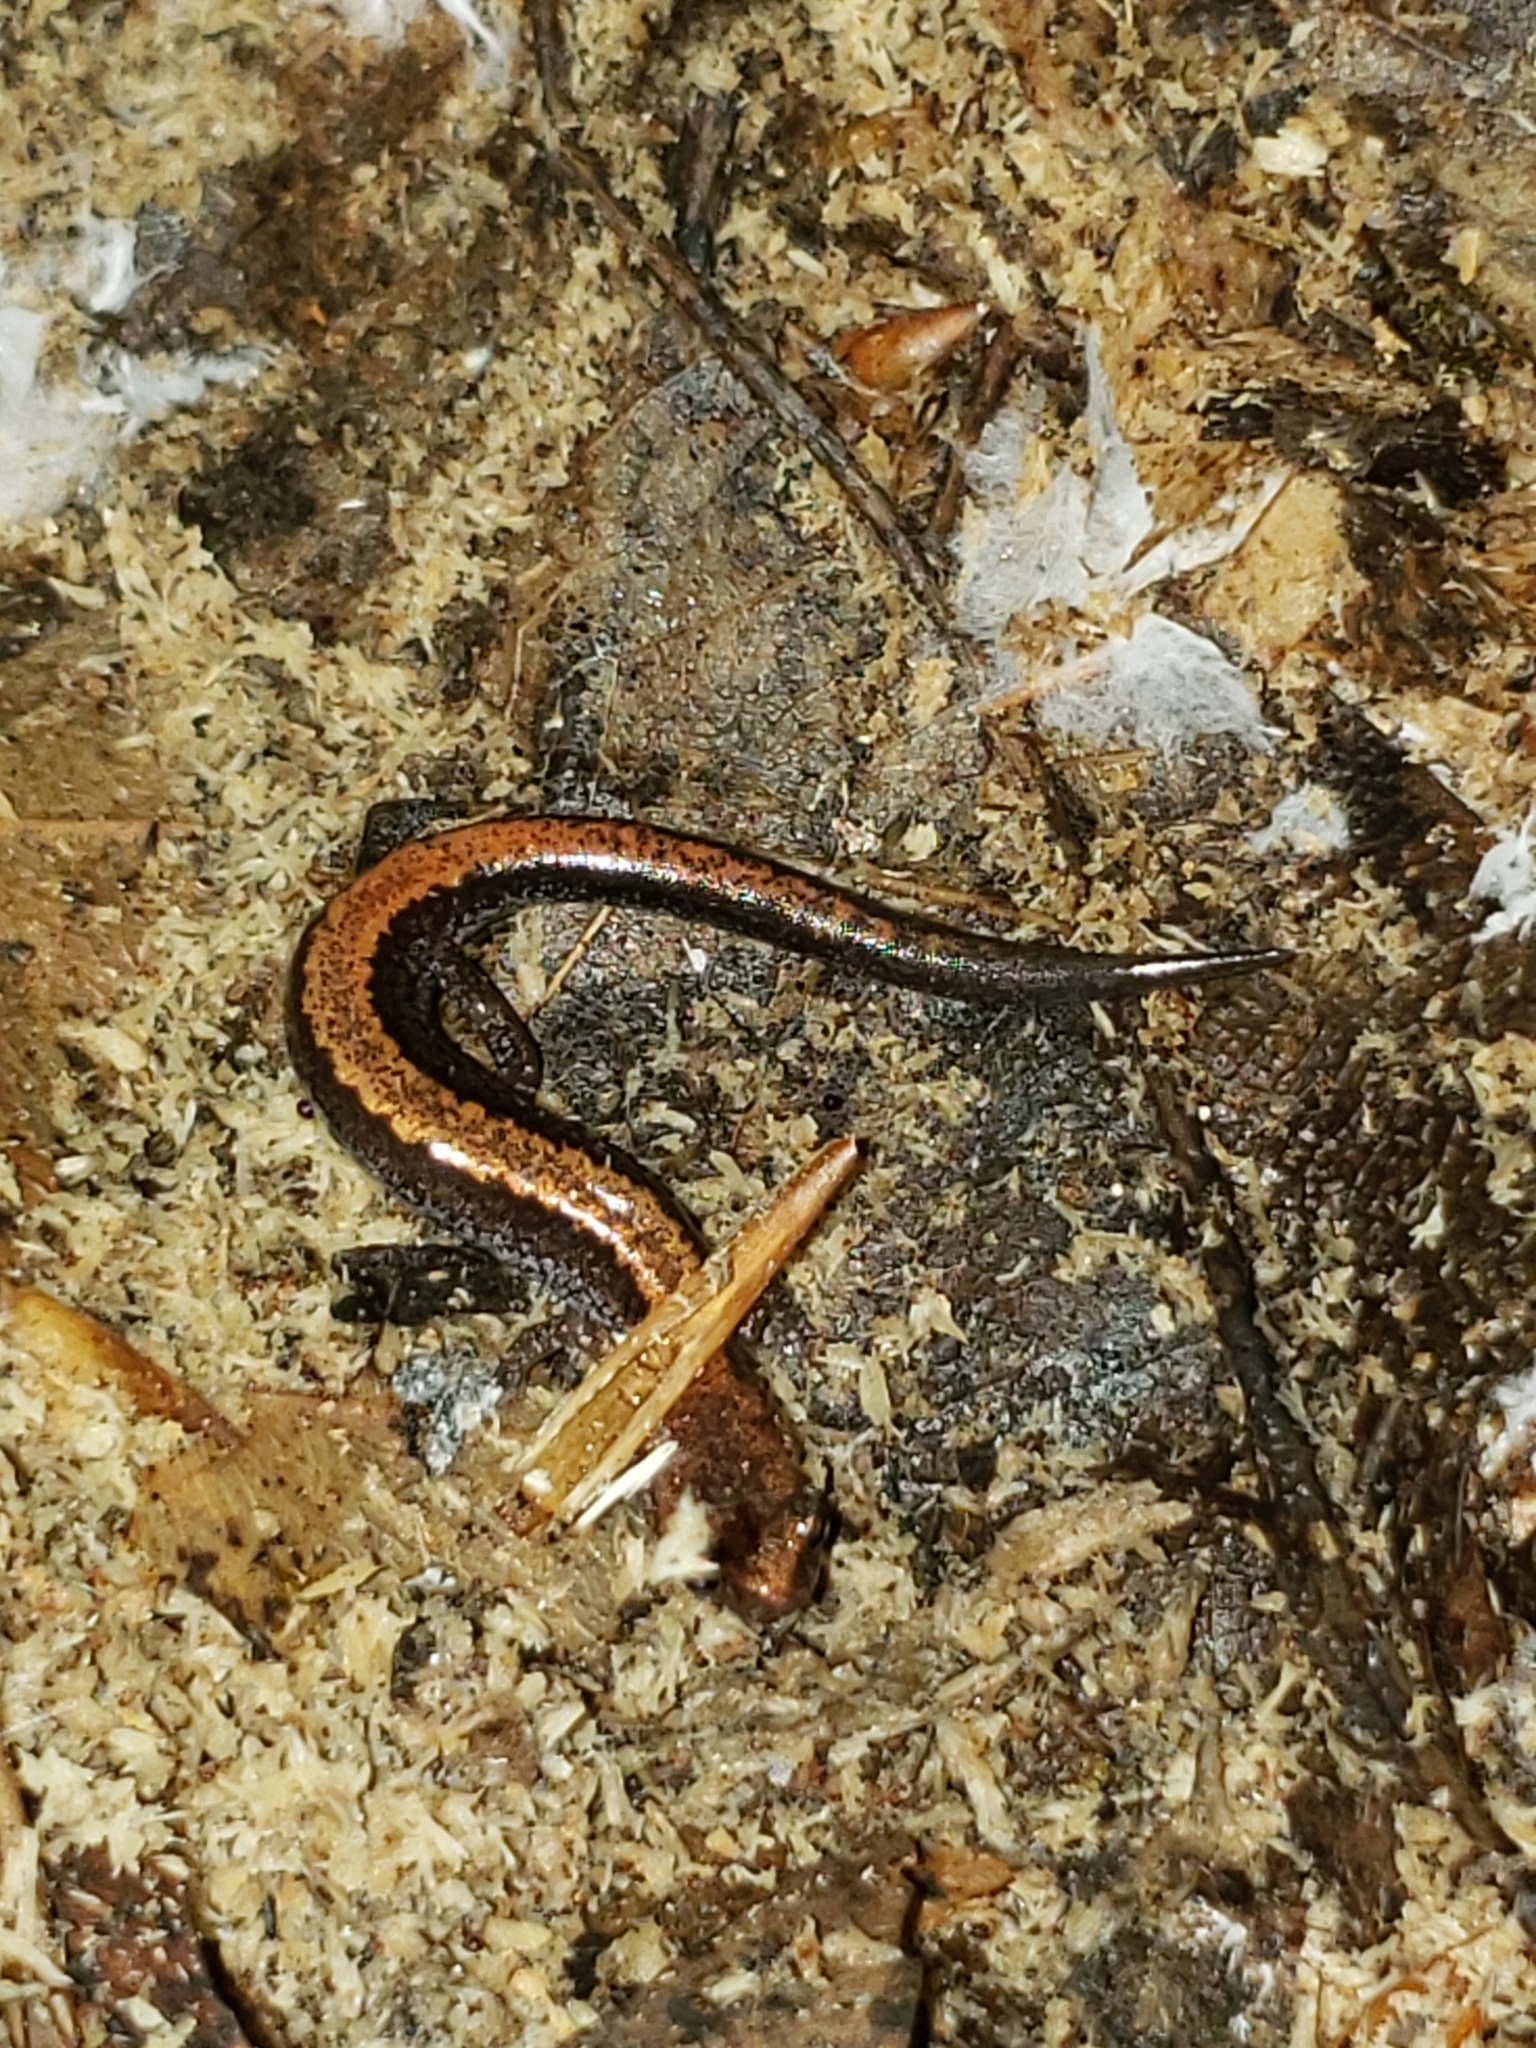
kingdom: Animalia
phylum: Chordata
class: Amphibia
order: Caudata
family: Plethodontidae
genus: Plethodon
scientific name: Plethodon cinereus
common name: Redback salamander
